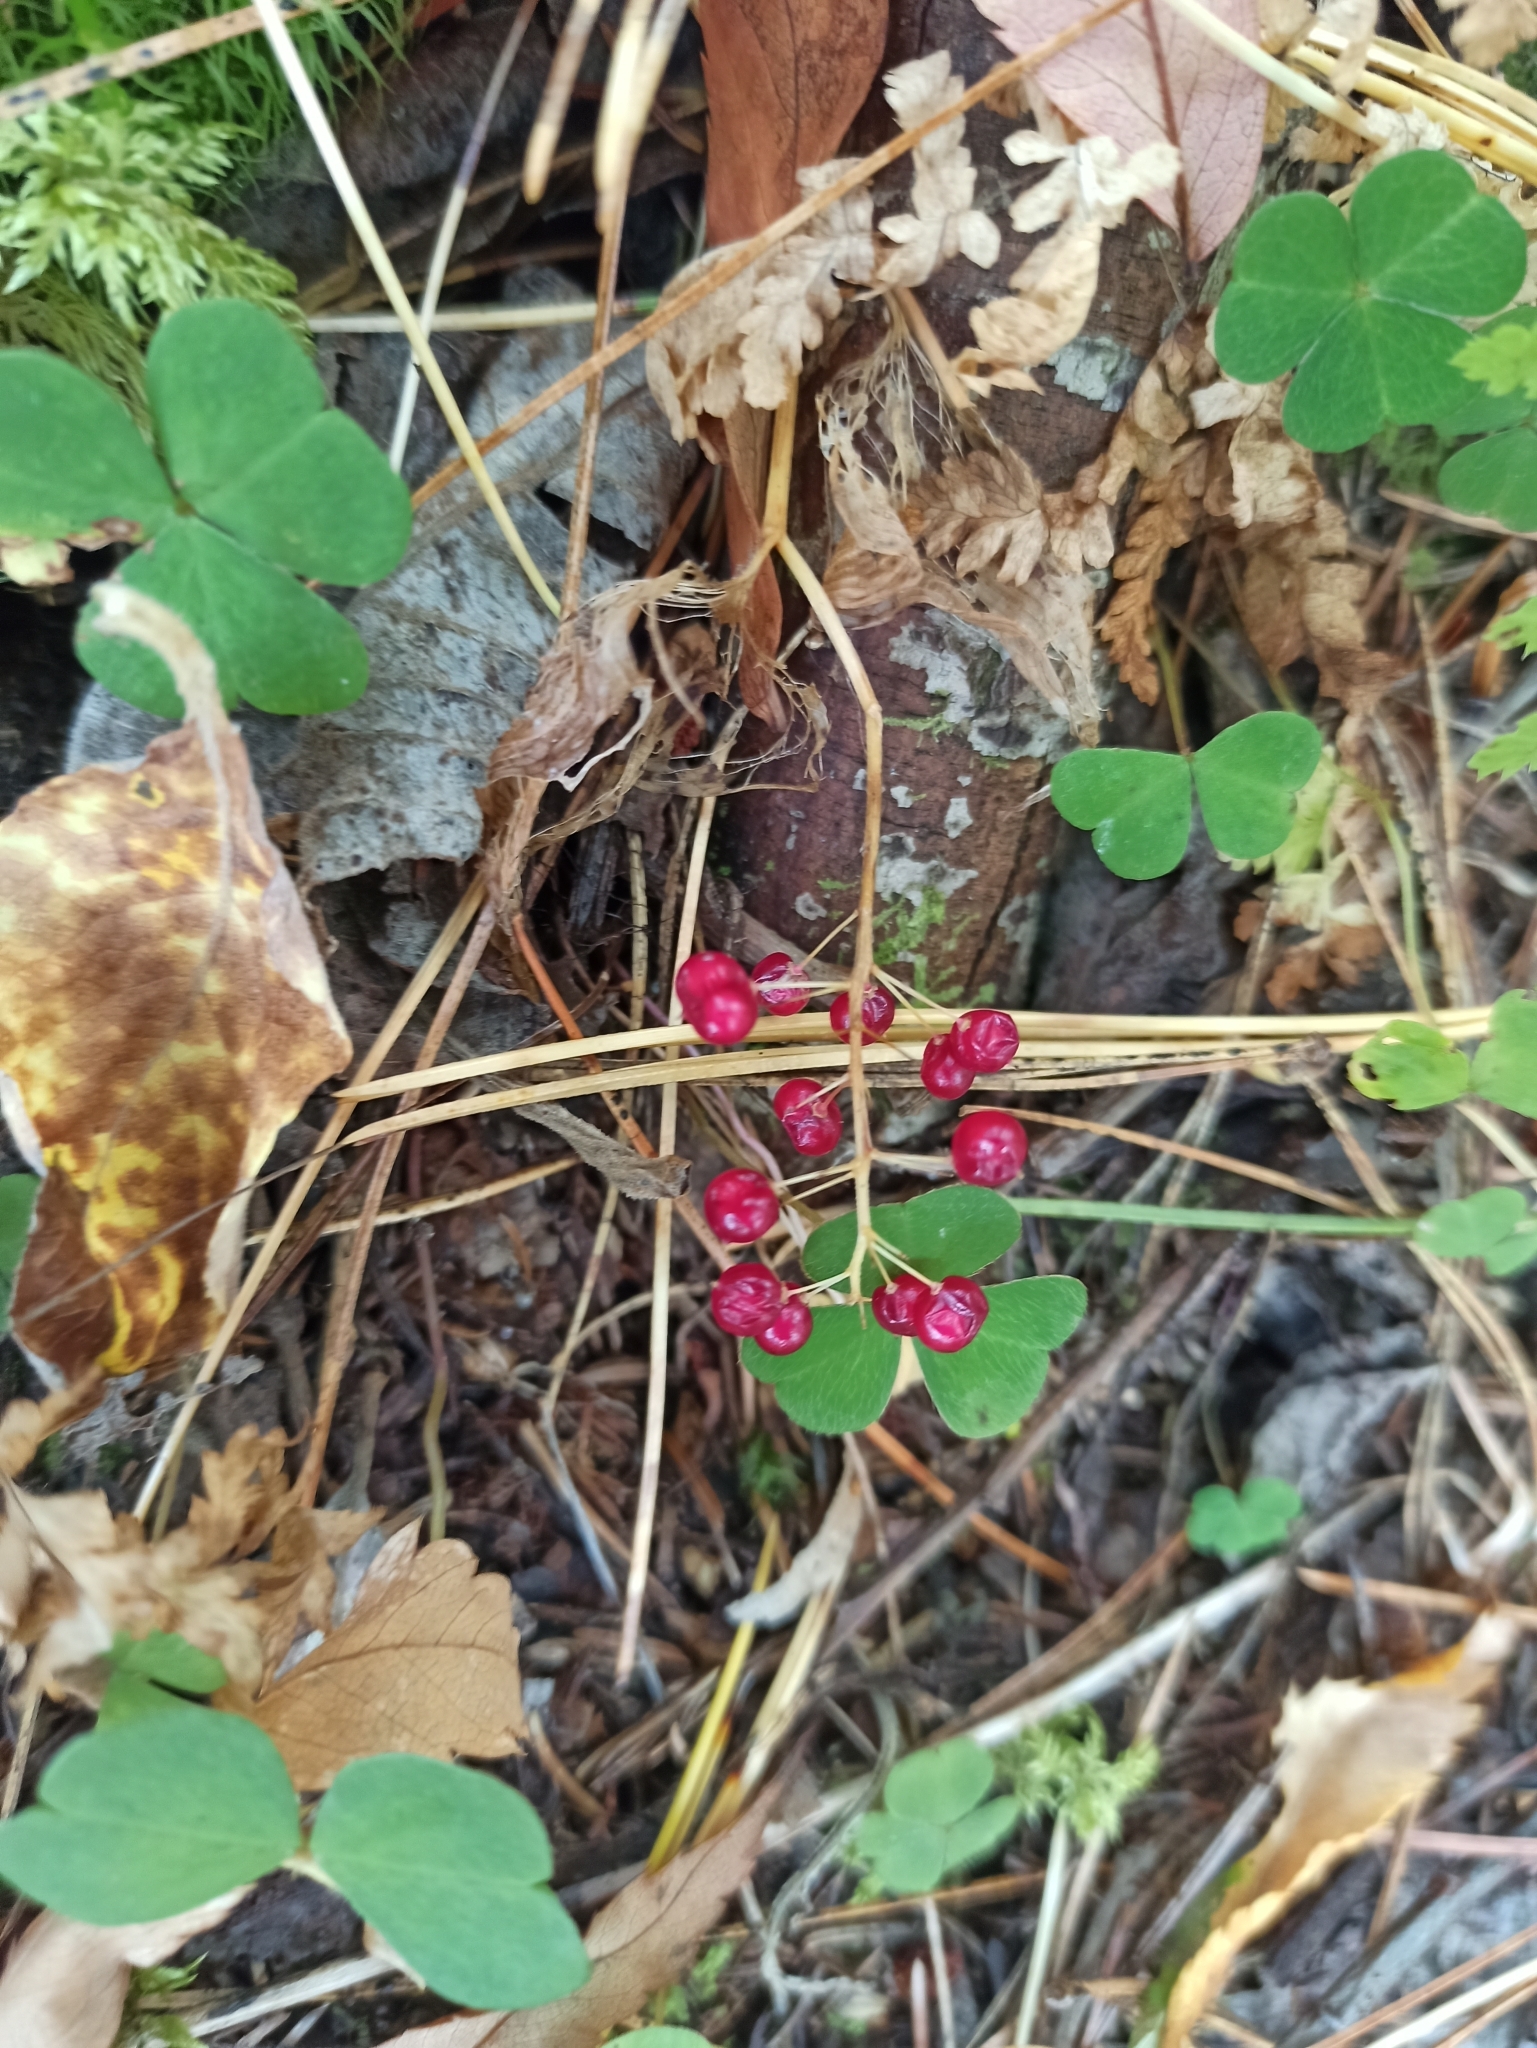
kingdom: Plantae
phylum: Tracheophyta
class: Liliopsida
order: Asparagales
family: Asparagaceae
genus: Maianthemum
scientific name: Maianthemum bifolium
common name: May lily
